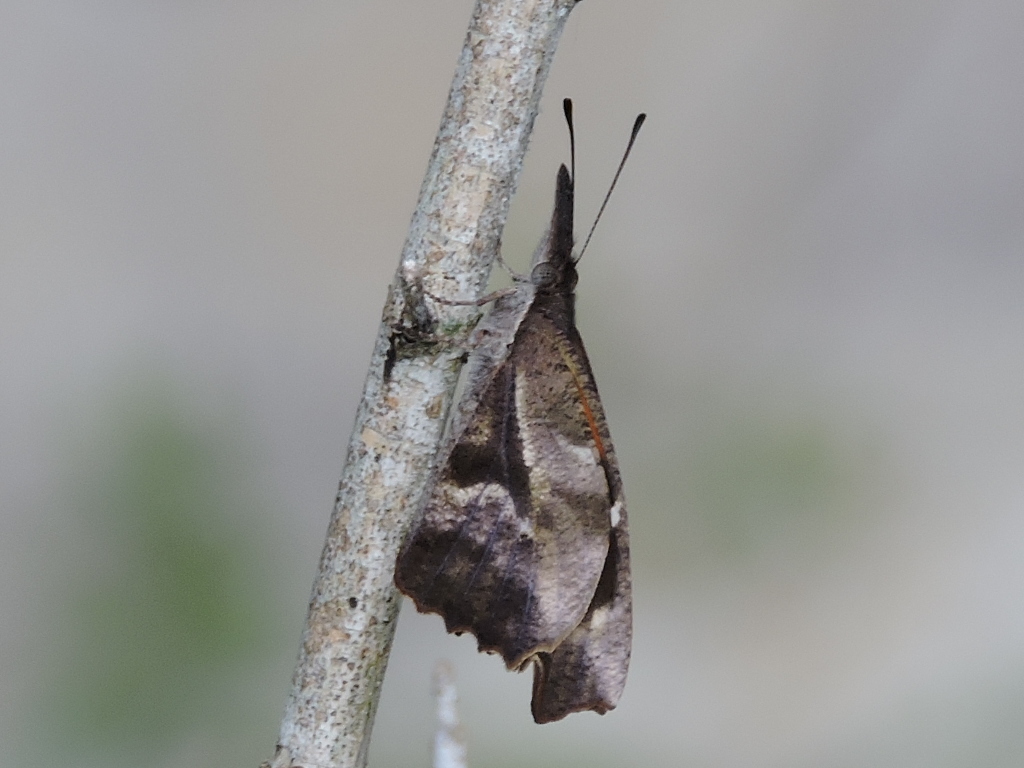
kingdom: Animalia
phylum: Arthropoda
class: Insecta
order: Lepidoptera
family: Nymphalidae
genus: Libytheana
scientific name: Libytheana carinenta
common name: American snout
